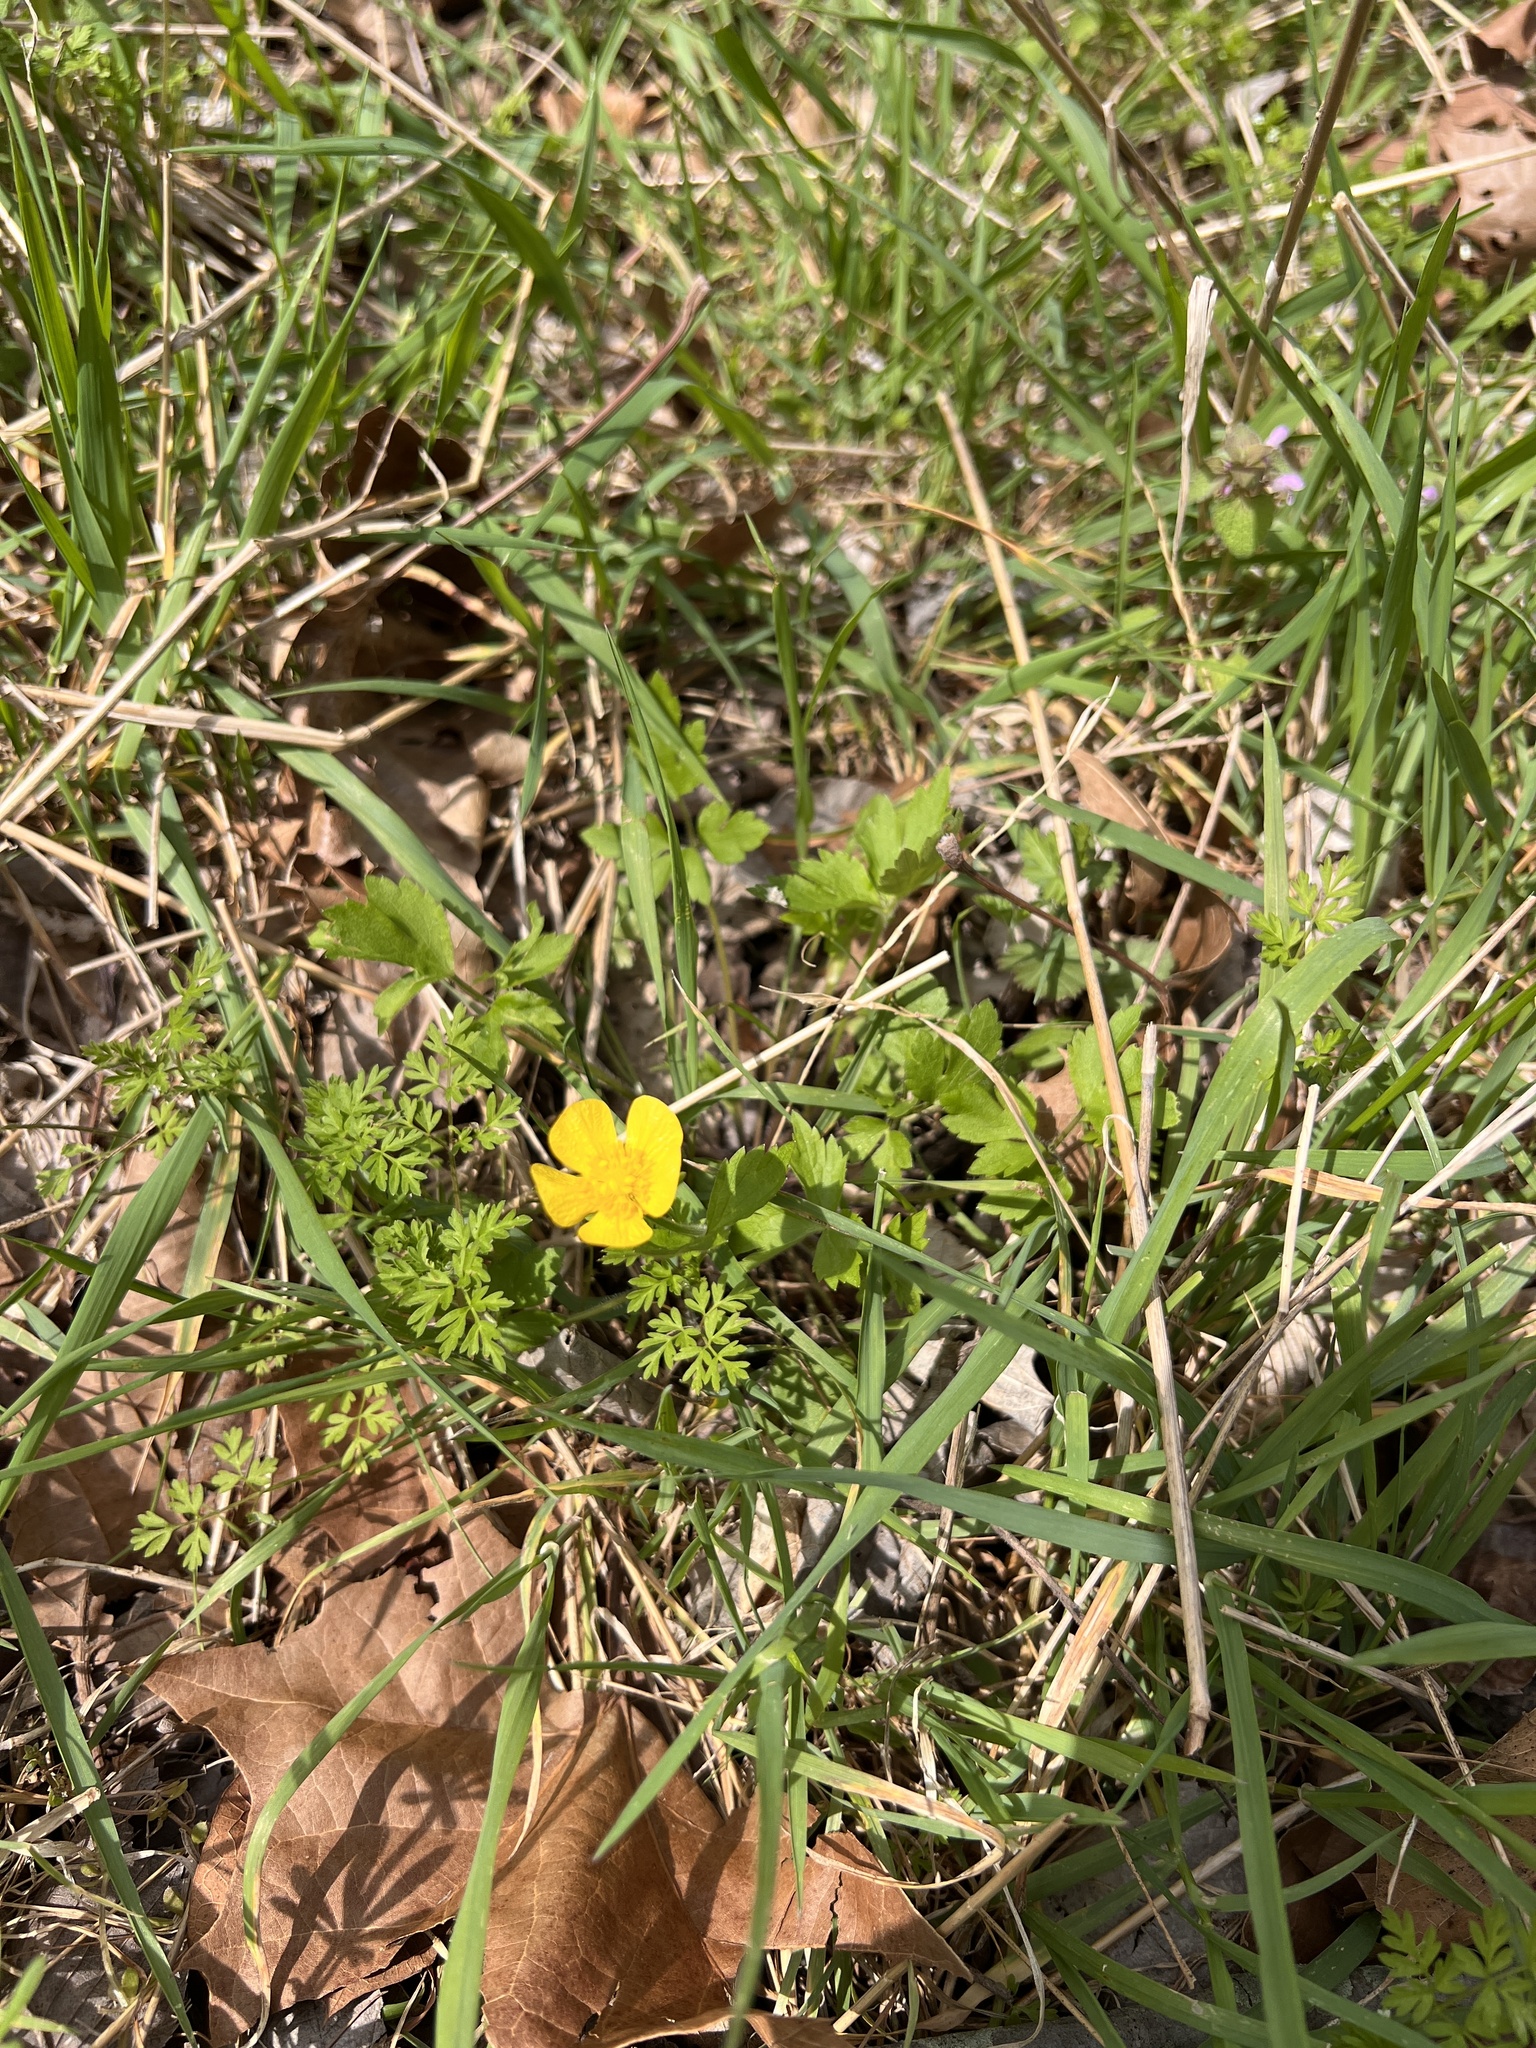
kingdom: Plantae
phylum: Tracheophyta
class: Magnoliopsida
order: Ranunculales
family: Ranunculaceae
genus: Ranunculus
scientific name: Ranunculus hispidus
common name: Bristly buttercup
